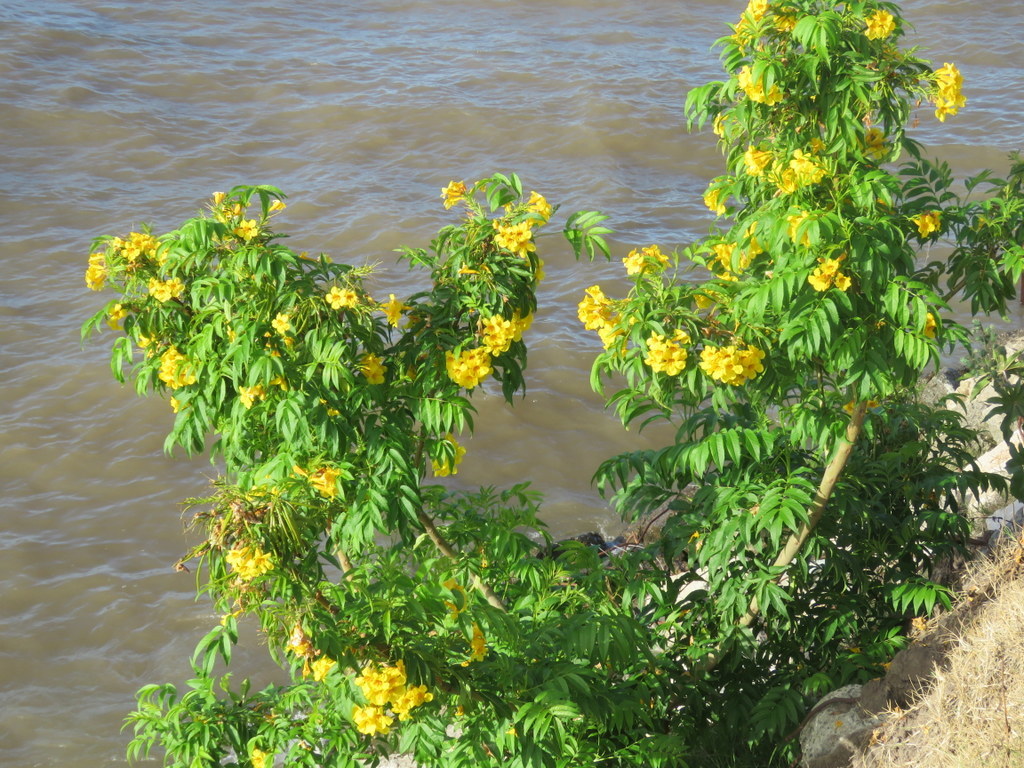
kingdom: Plantae
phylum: Tracheophyta
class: Magnoliopsida
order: Lamiales
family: Bignoniaceae
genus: Tecoma
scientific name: Tecoma stans
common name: Yellow trumpetbush
